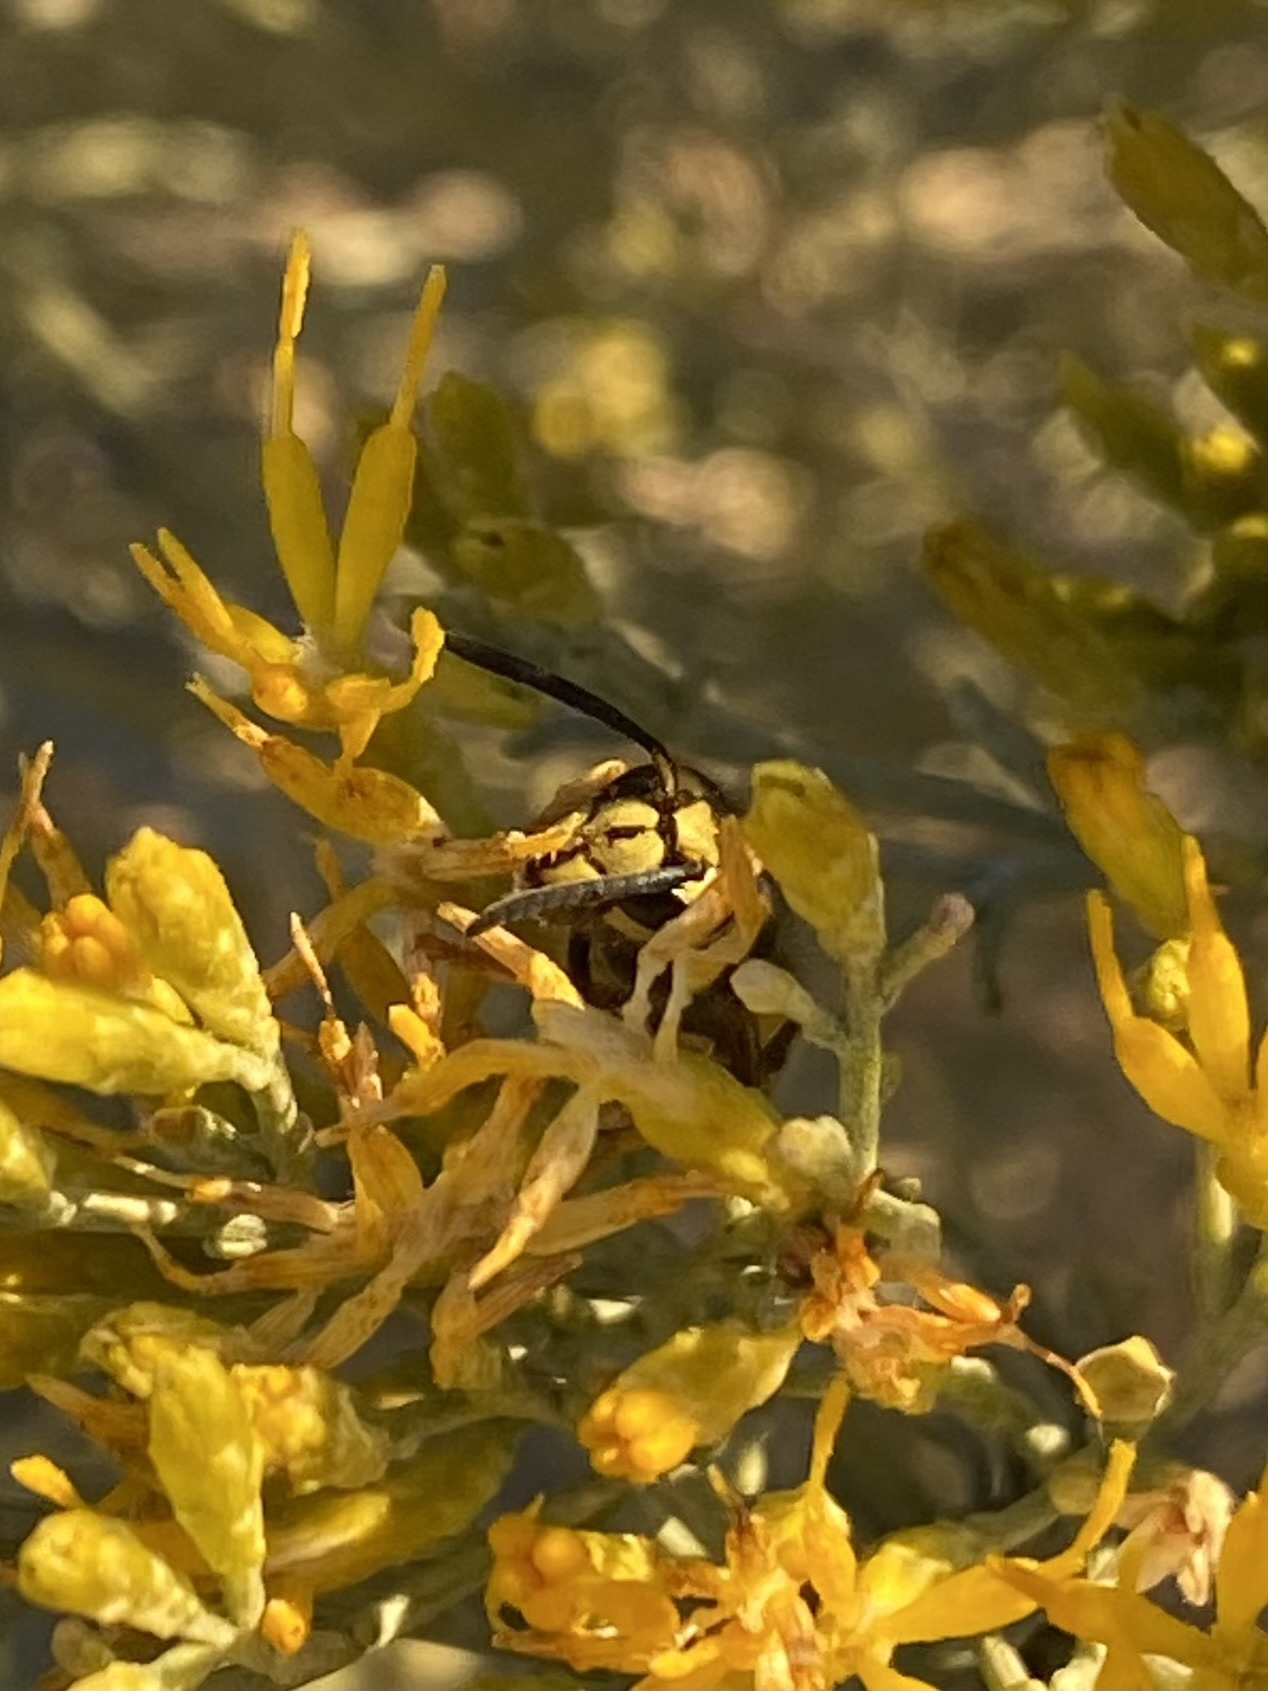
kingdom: Animalia
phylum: Arthropoda
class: Insecta
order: Hymenoptera
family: Vespidae
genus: Vespula
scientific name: Vespula pensylvanica
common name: Western yellowjacket
